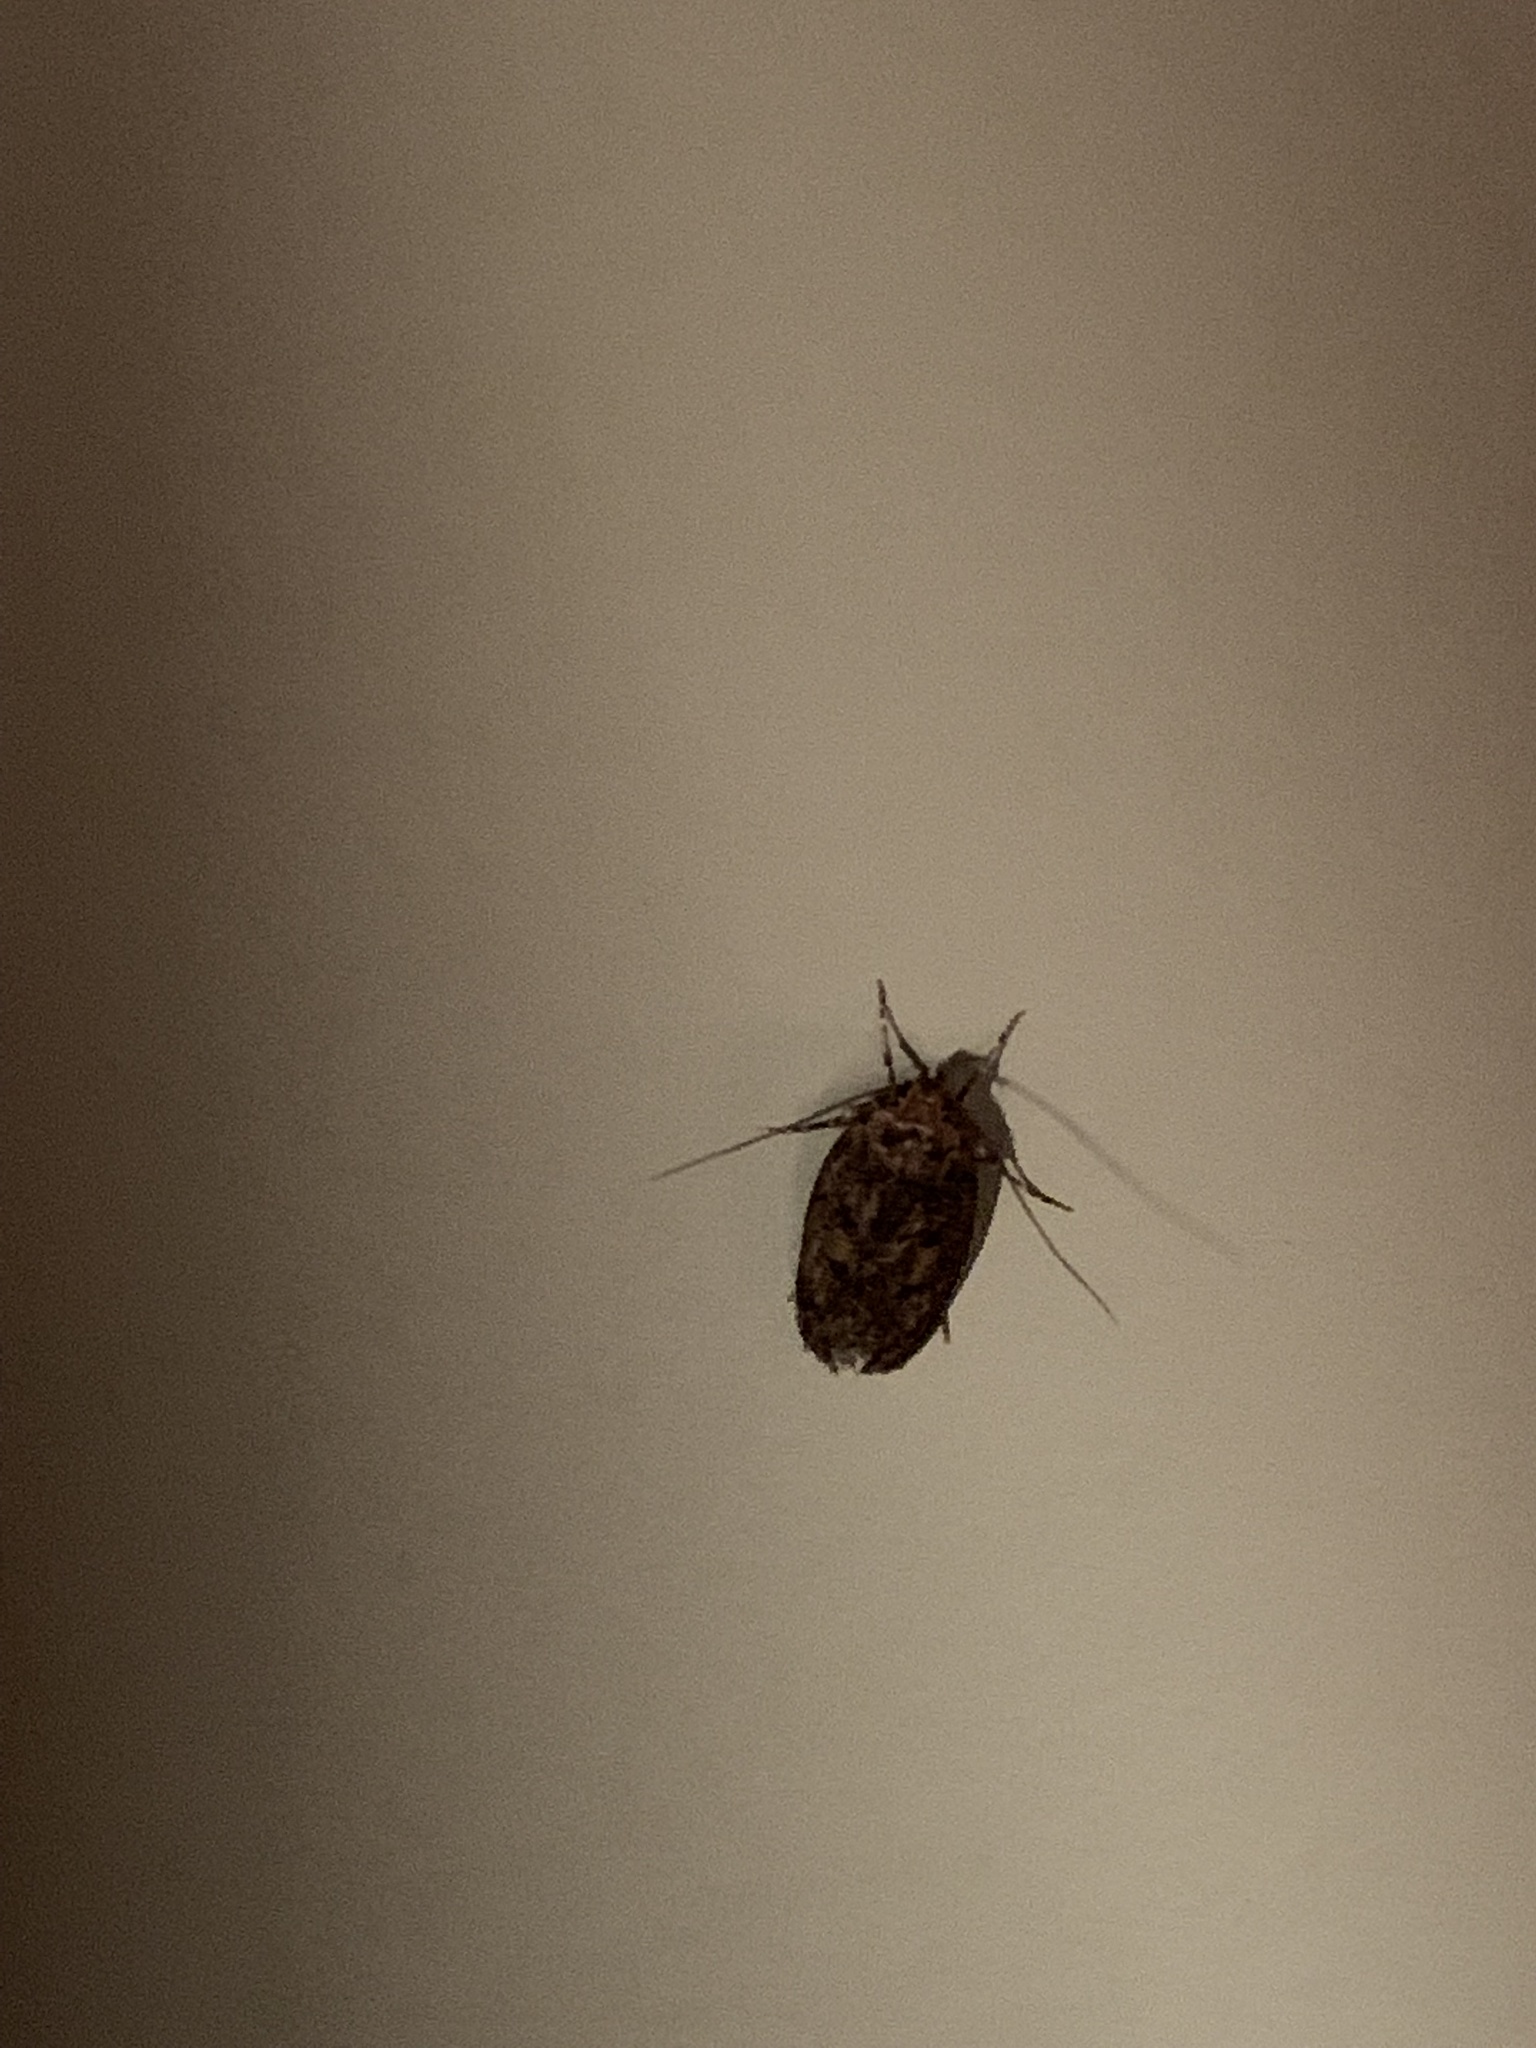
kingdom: Animalia
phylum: Arthropoda
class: Insecta
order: Lepidoptera
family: Oecophoridae
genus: Hofmannophila
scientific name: Hofmannophila pseudospretella
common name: Brown house moth
